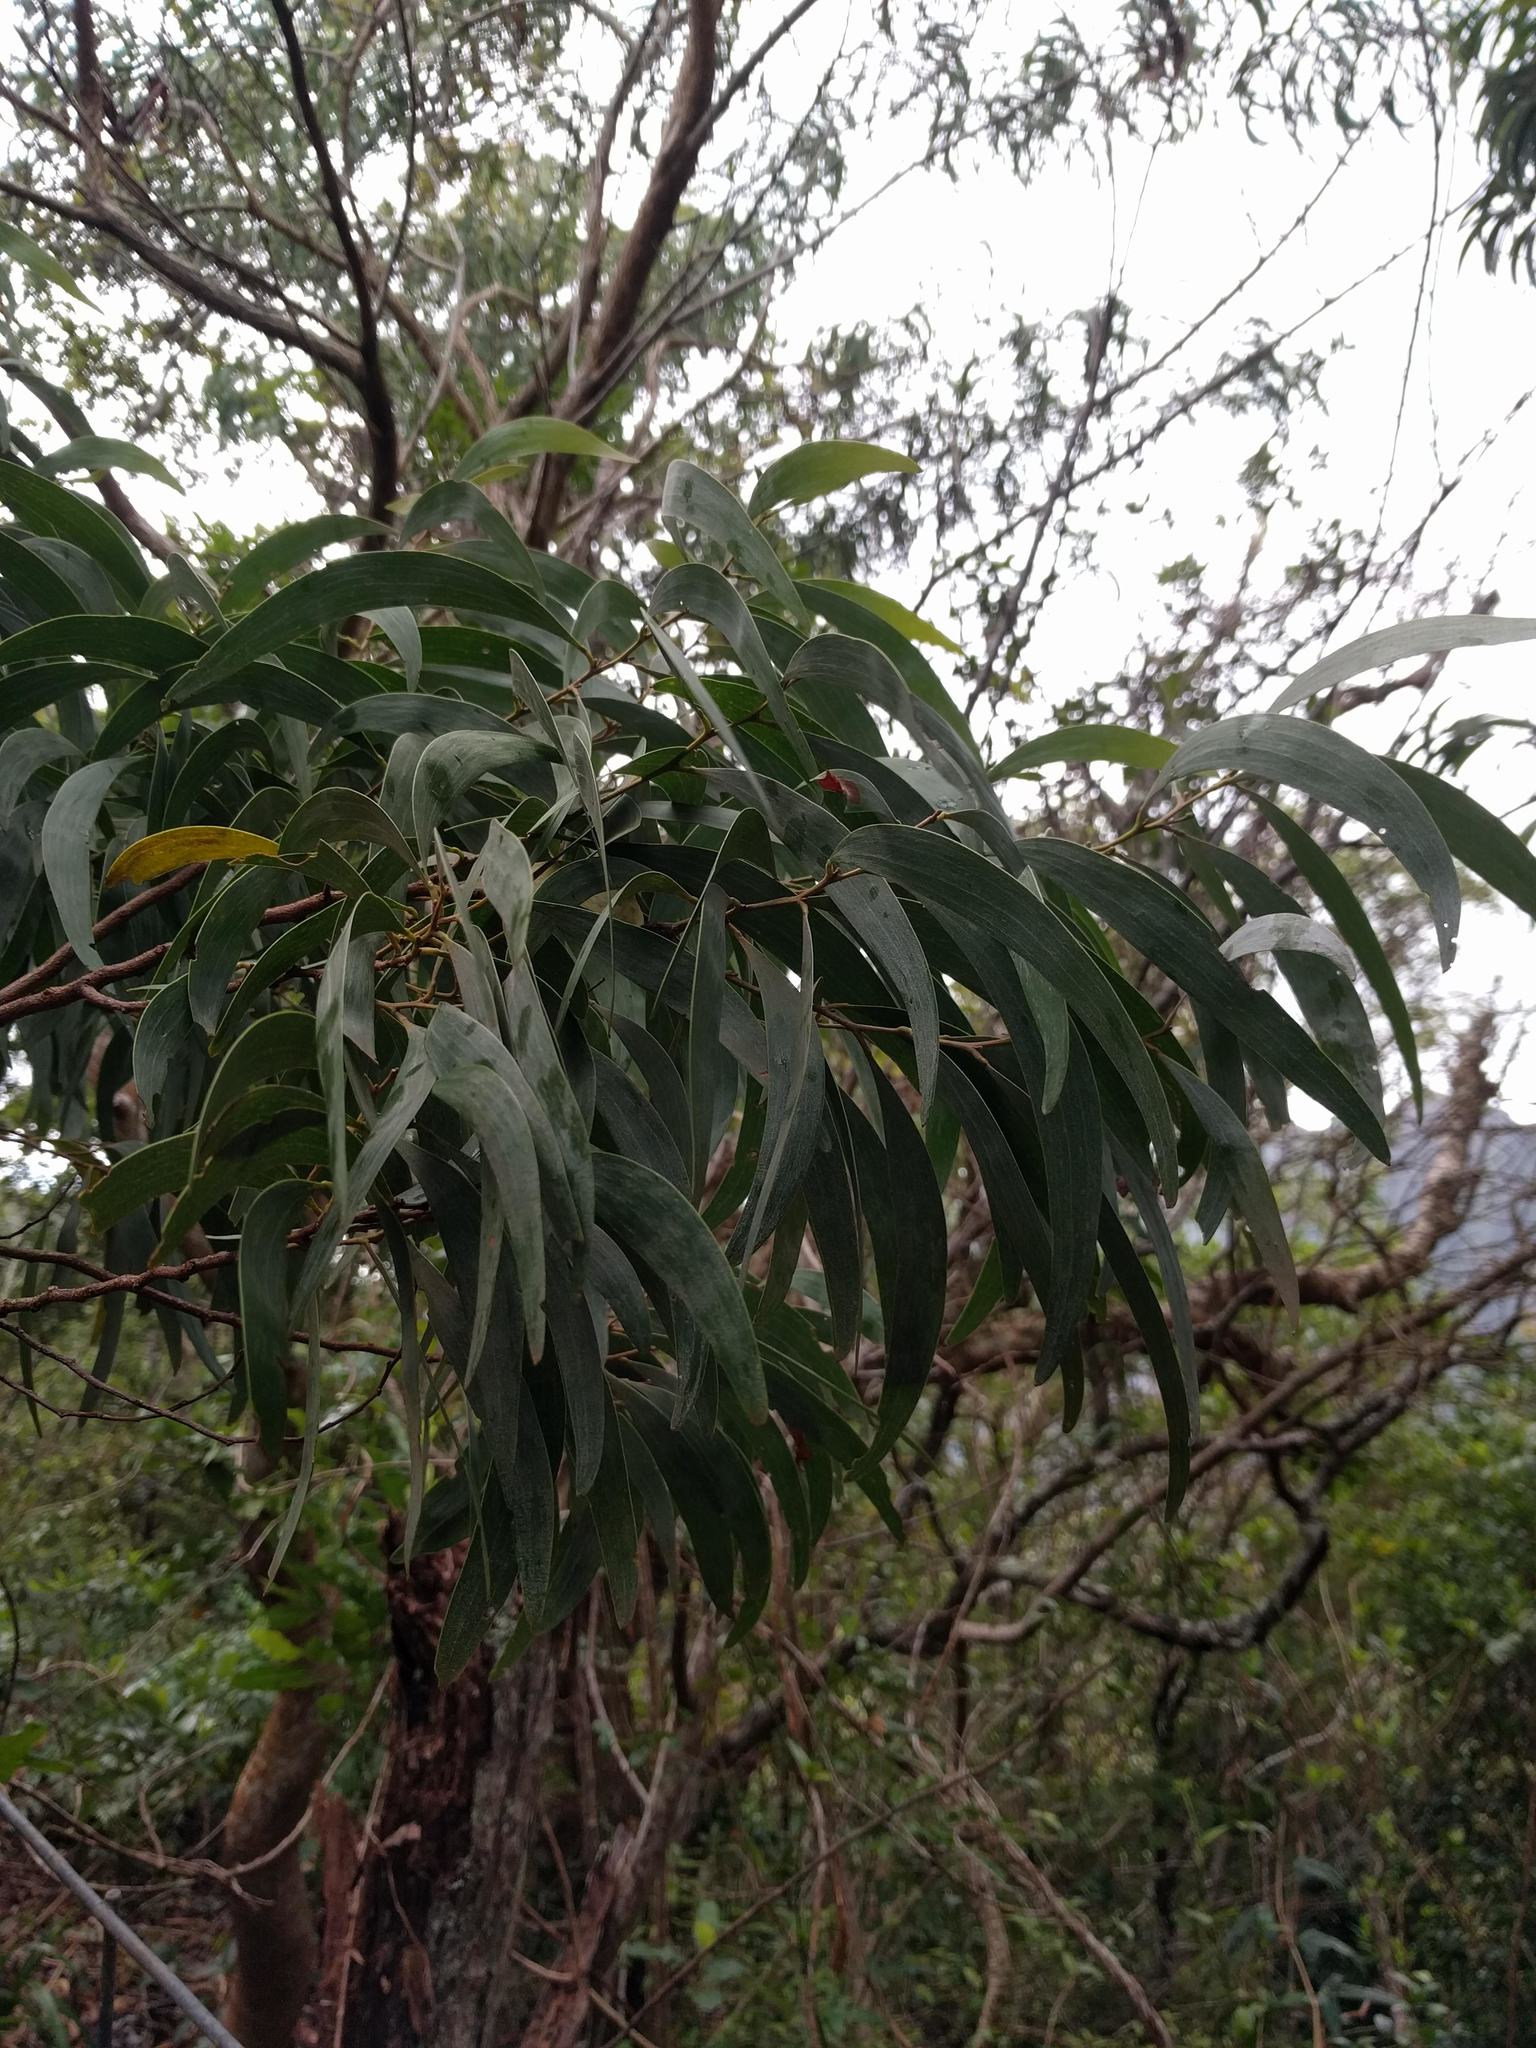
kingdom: Plantae
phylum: Tracheophyta
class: Magnoliopsida
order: Fabales
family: Fabaceae
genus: Acacia
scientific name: Acacia koa
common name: Gray koa
